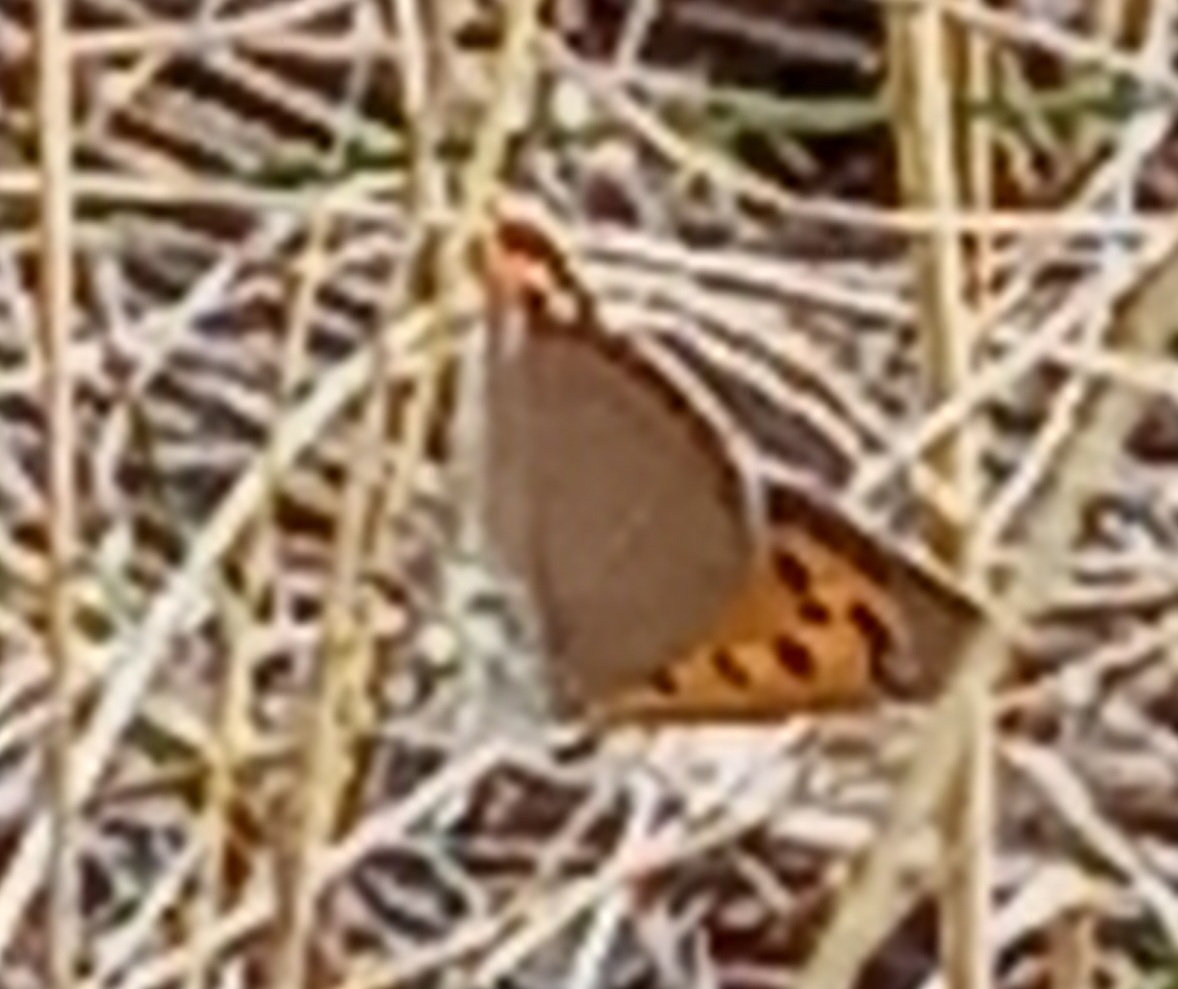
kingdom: Animalia
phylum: Arthropoda
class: Insecta
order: Lepidoptera
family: Lycaenidae
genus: Lycaena
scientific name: Lycaena phlaeas
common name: Small copper
